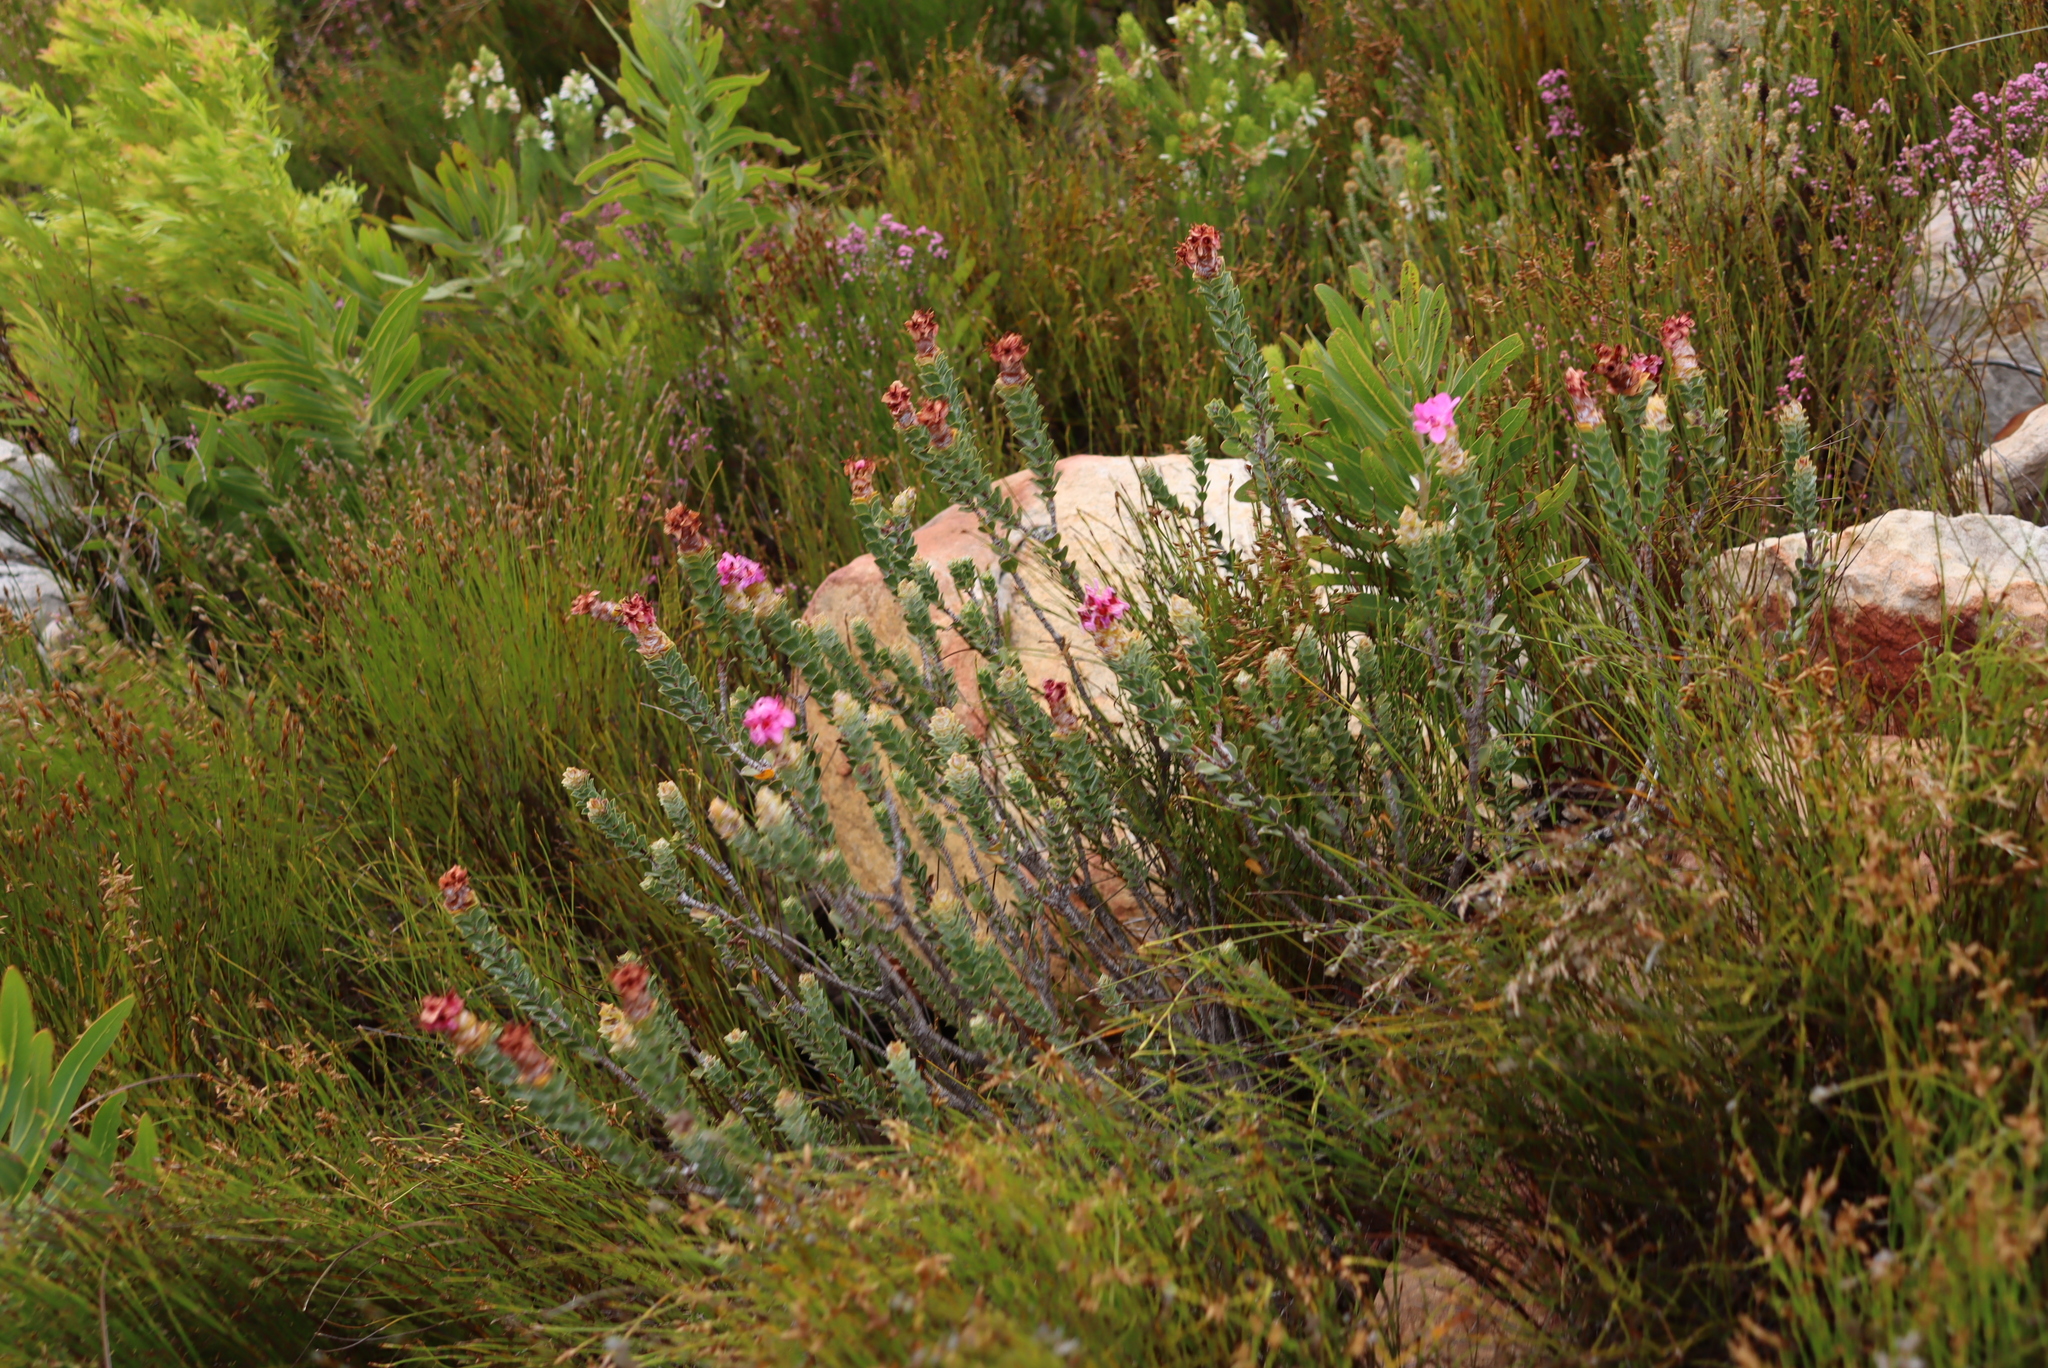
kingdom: Plantae
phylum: Tracheophyta
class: Magnoliopsida
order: Myrtales
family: Penaeaceae
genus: Saltera
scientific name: Saltera sarcocolla
